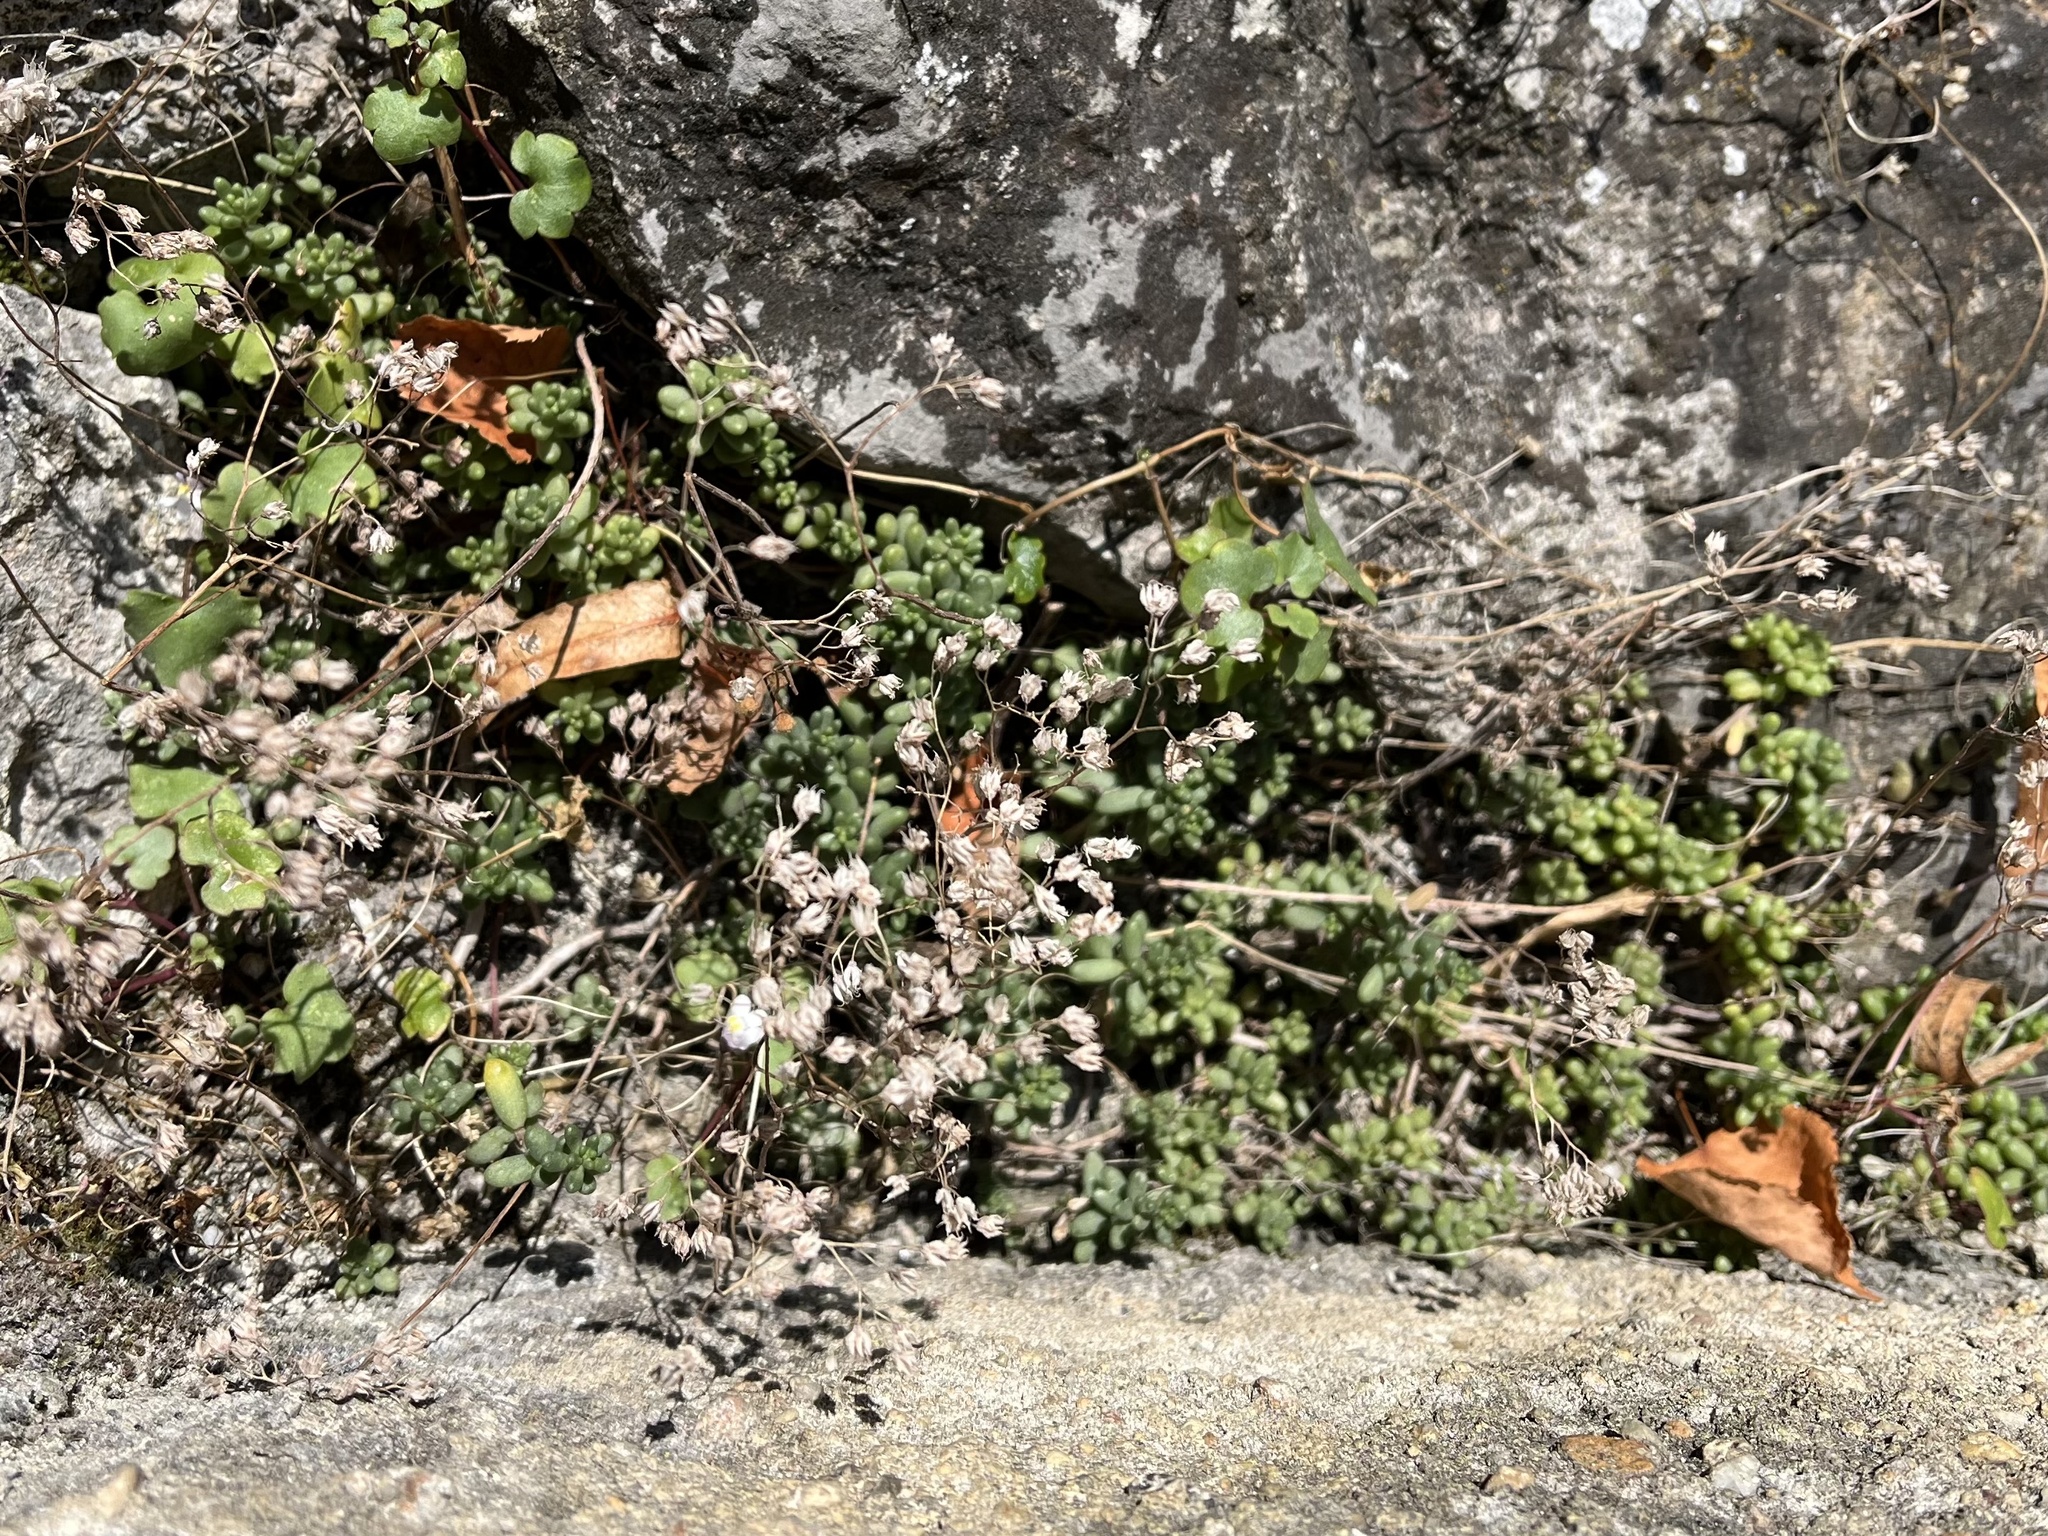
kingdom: Plantae
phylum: Tracheophyta
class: Magnoliopsida
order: Saxifragales
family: Crassulaceae
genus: Sedum
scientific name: Sedum album
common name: White stonecrop
